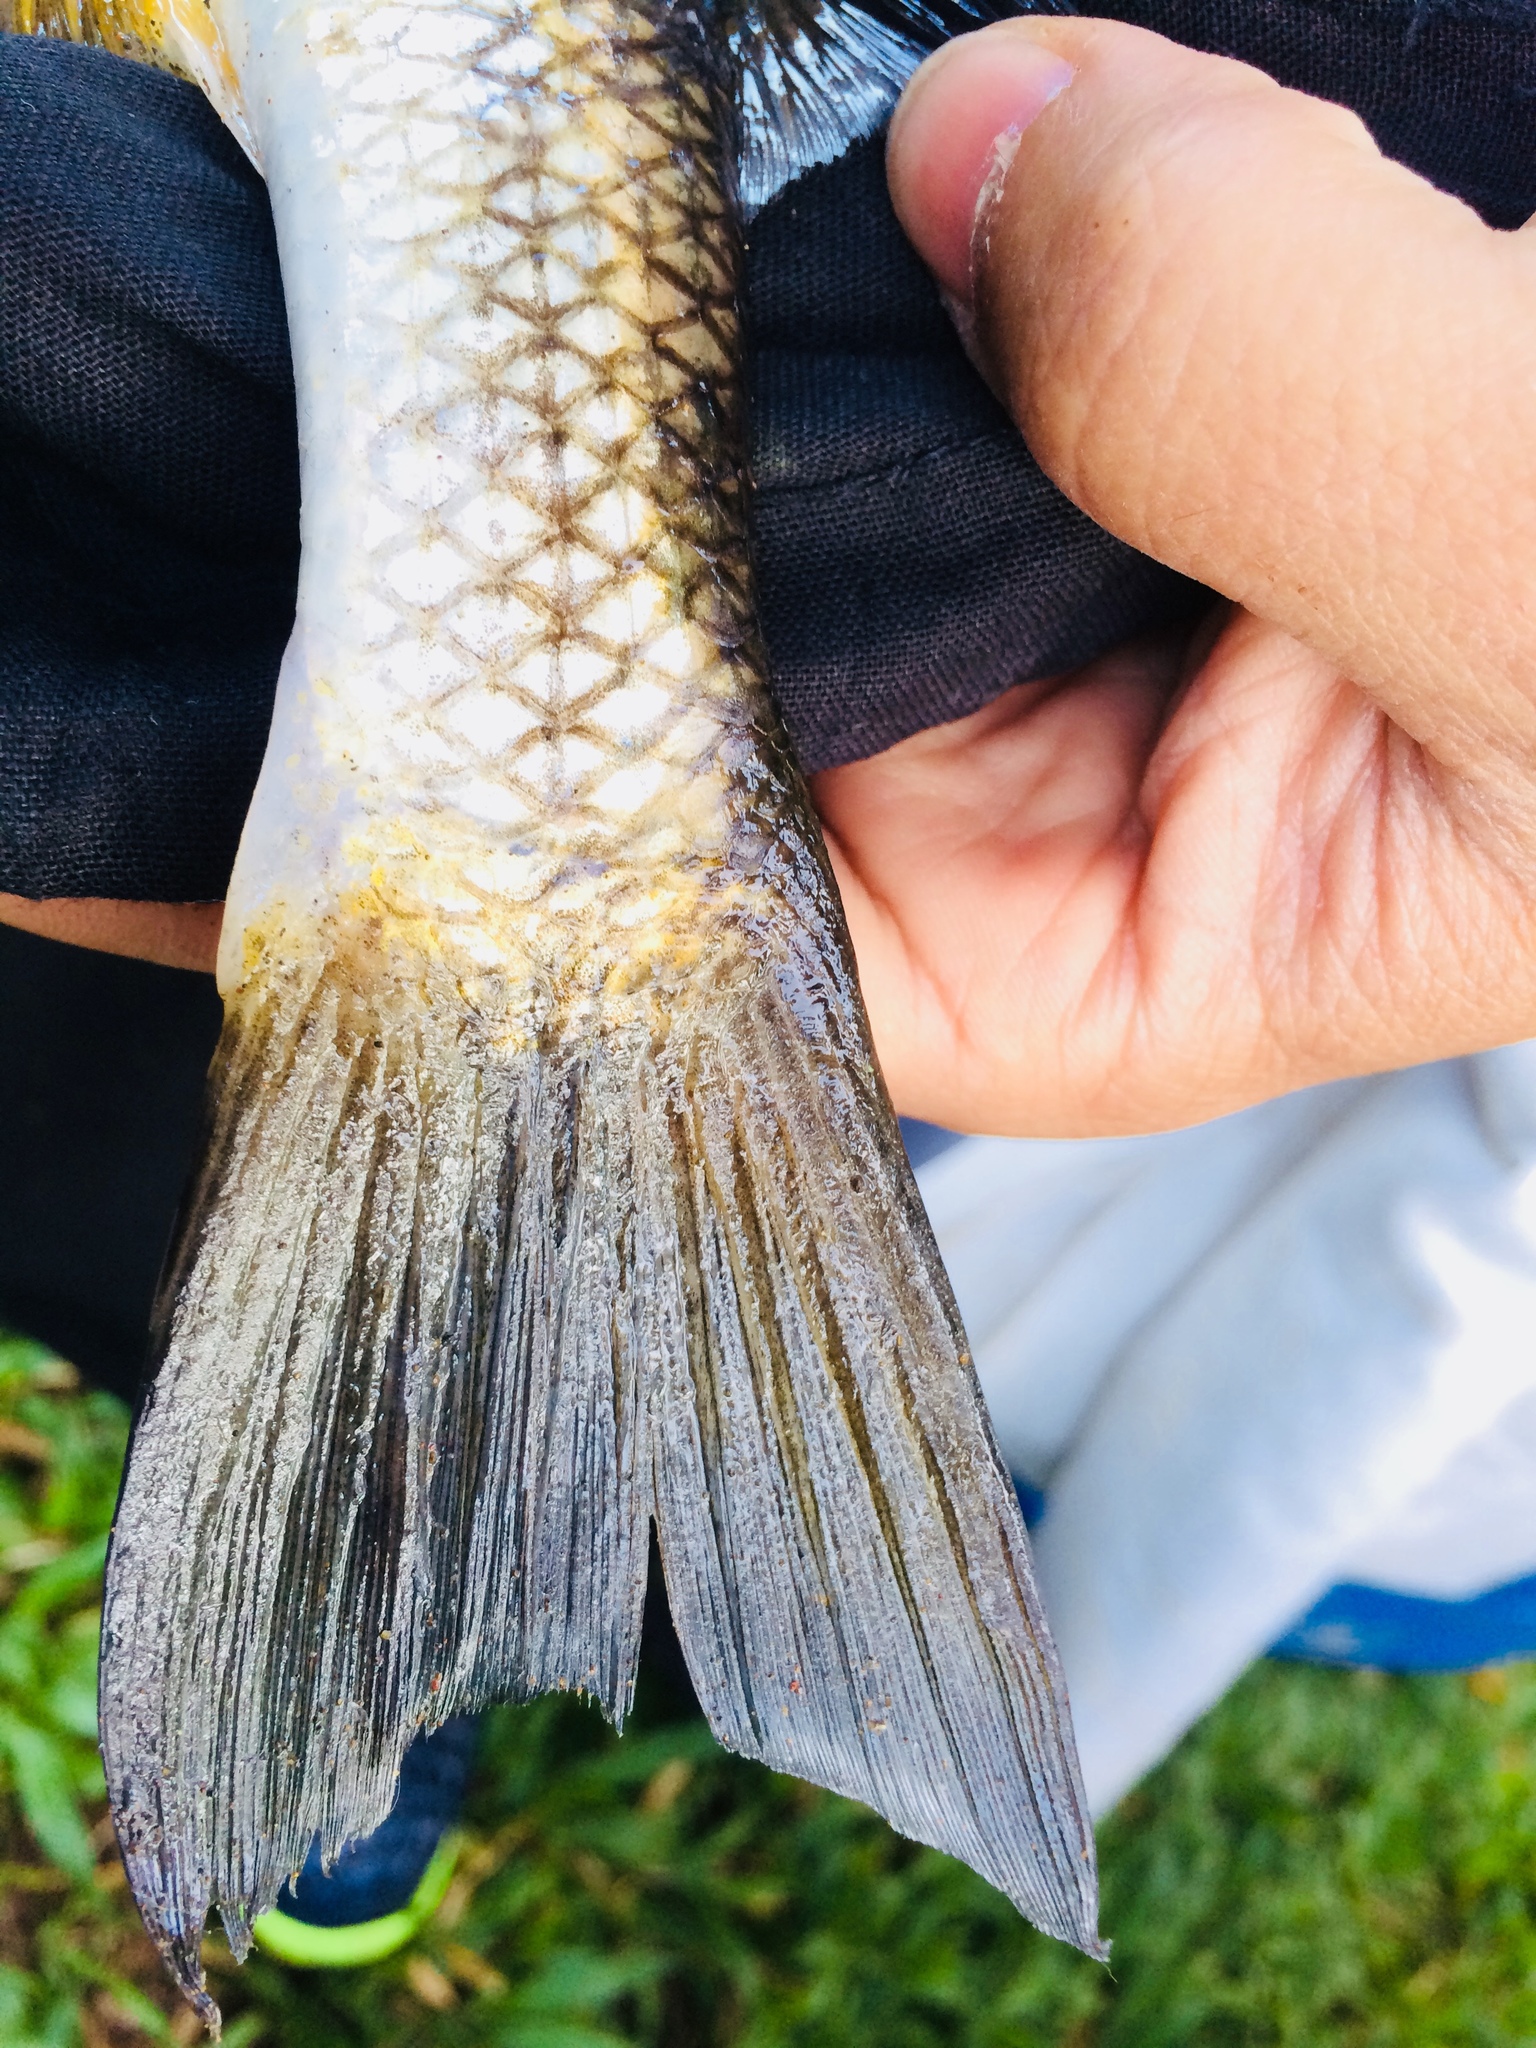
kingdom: Animalia
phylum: Chordata
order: Mugiliformes
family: Mugilidae
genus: Dajaus
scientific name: Dajaus monticola
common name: Mountain mullet
